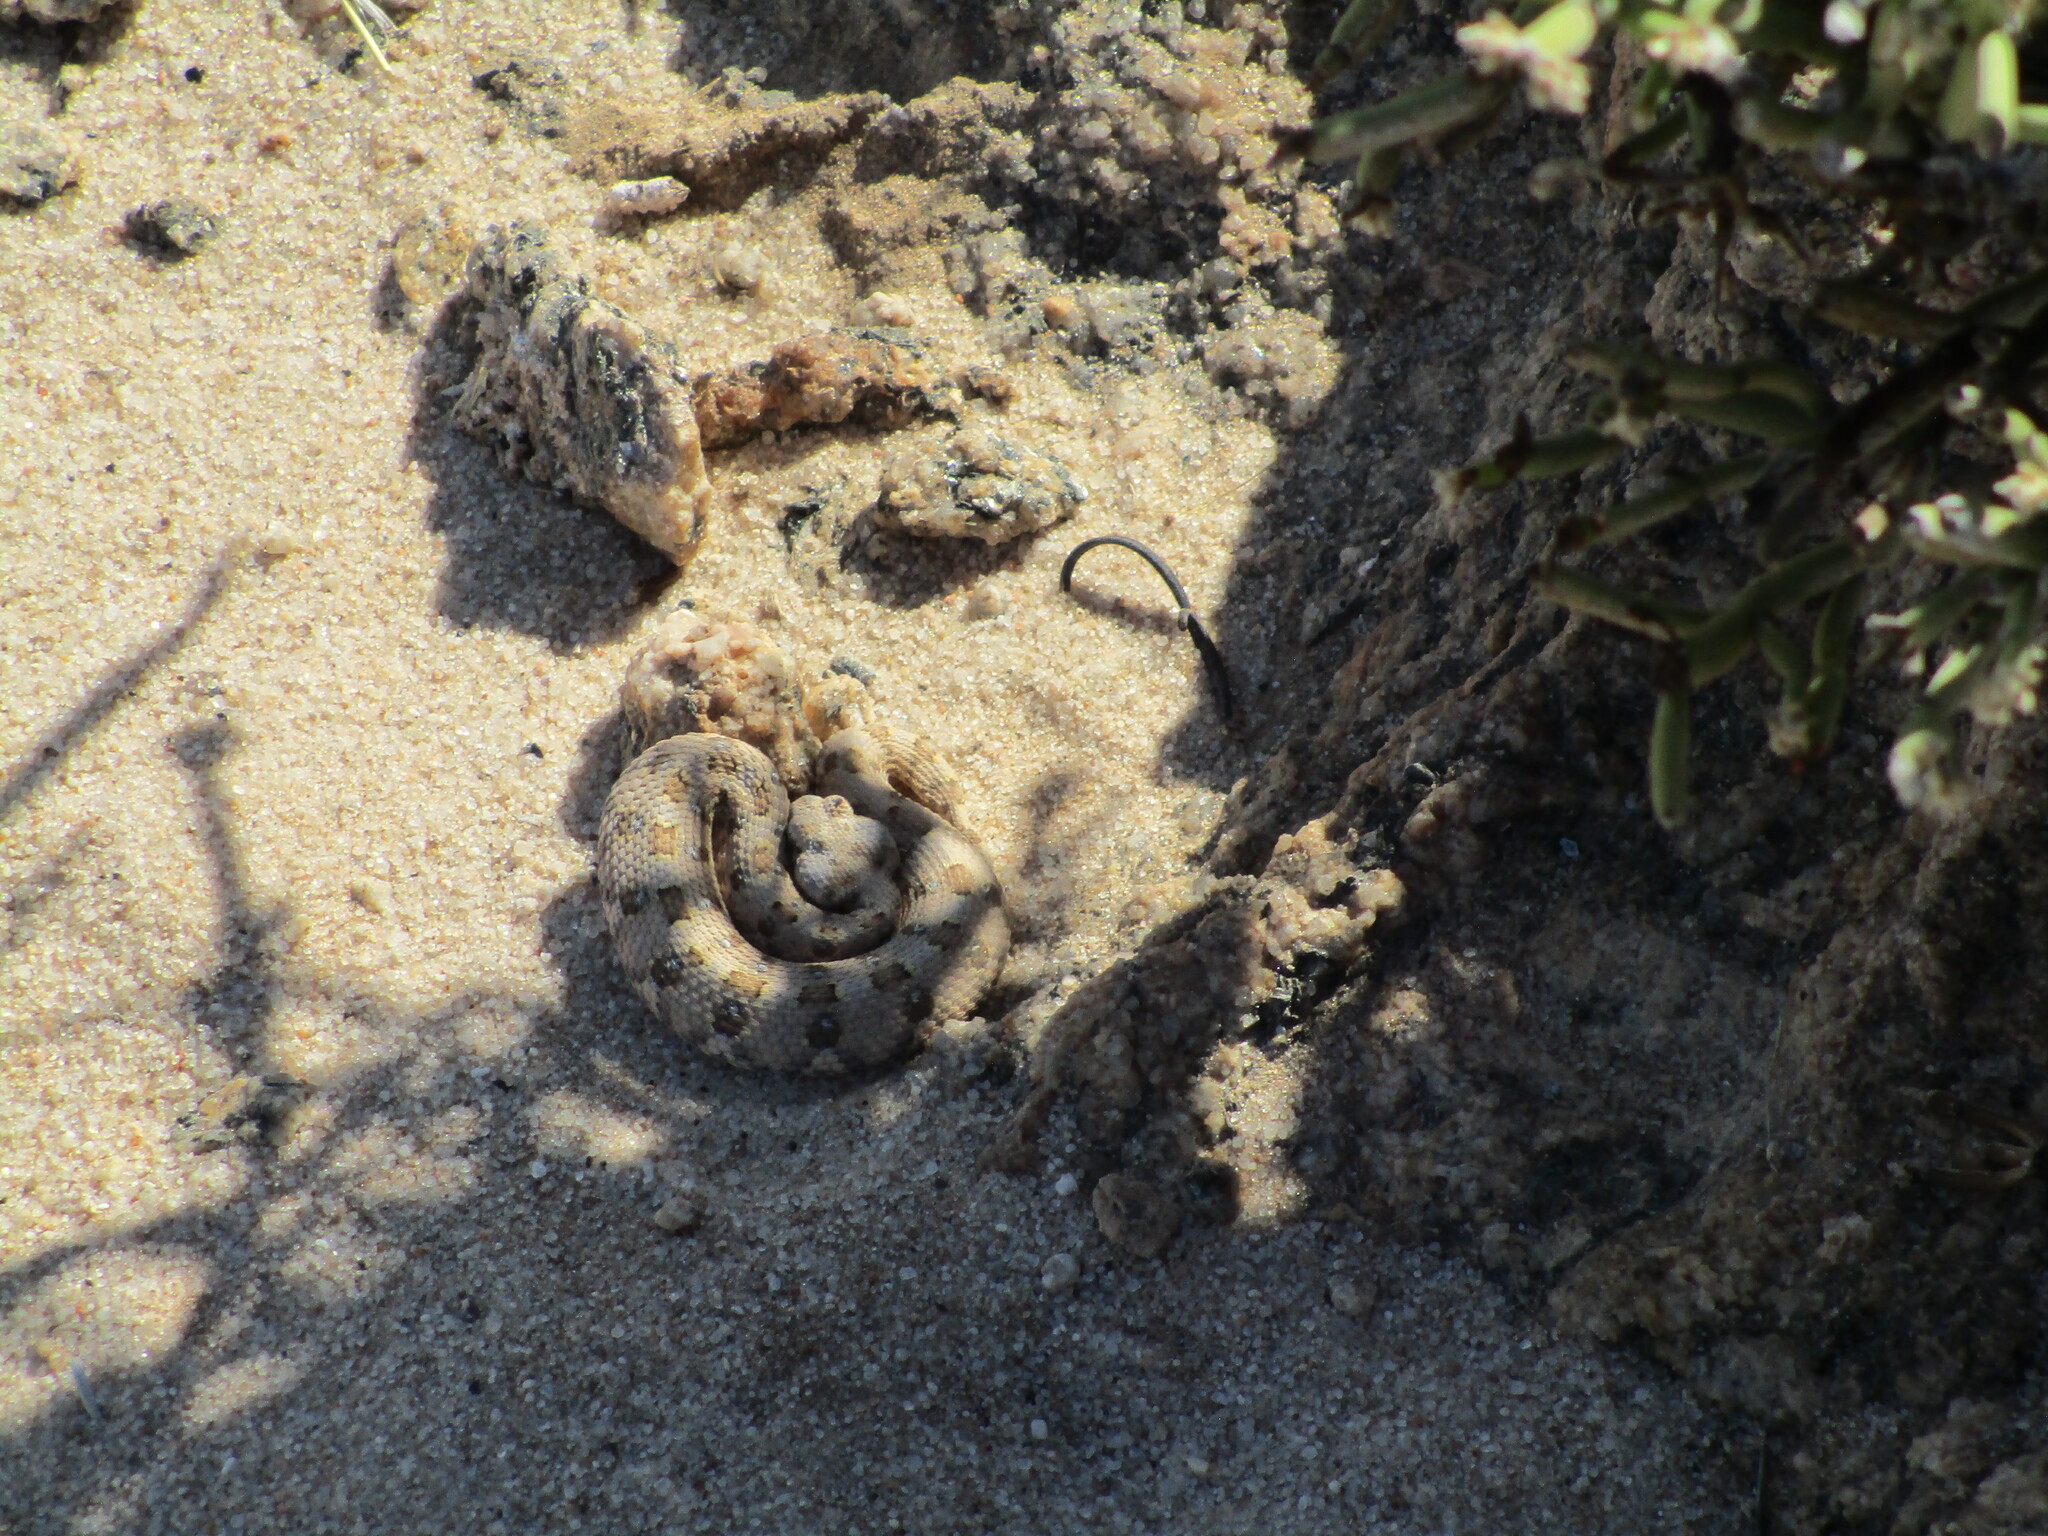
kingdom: Animalia
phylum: Chordata
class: Squamata
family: Viperidae
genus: Bitis
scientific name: Bitis caudalis
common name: Horned adder
